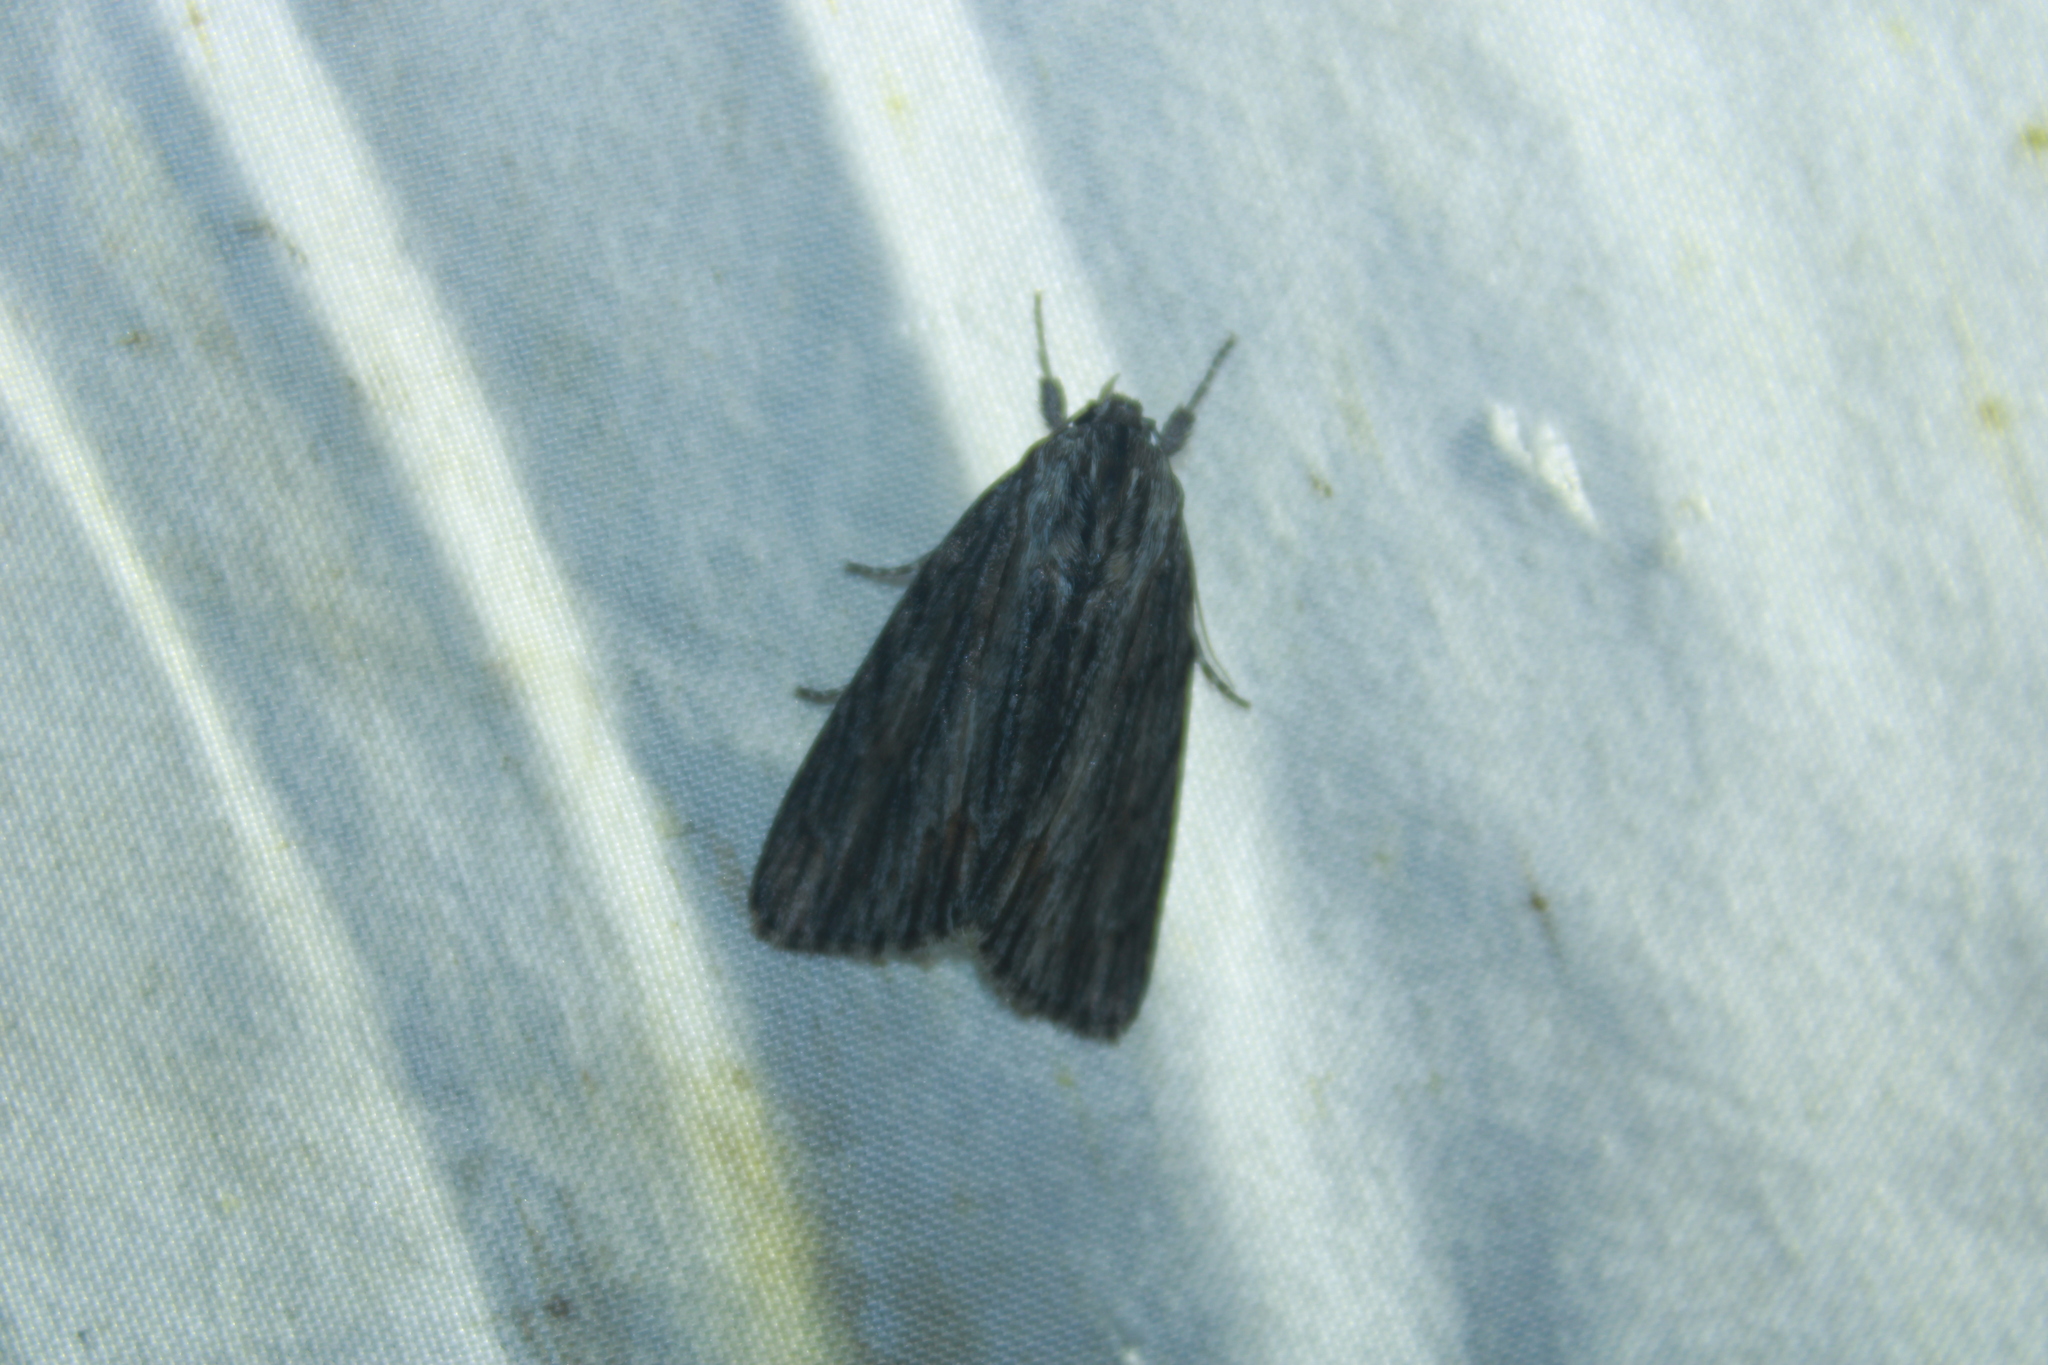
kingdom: Animalia
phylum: Arthropoda
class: Insecta
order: Lepidoptera
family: Noctuidae
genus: Acronicta
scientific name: Acronicta lithospila
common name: Streaked dagger
